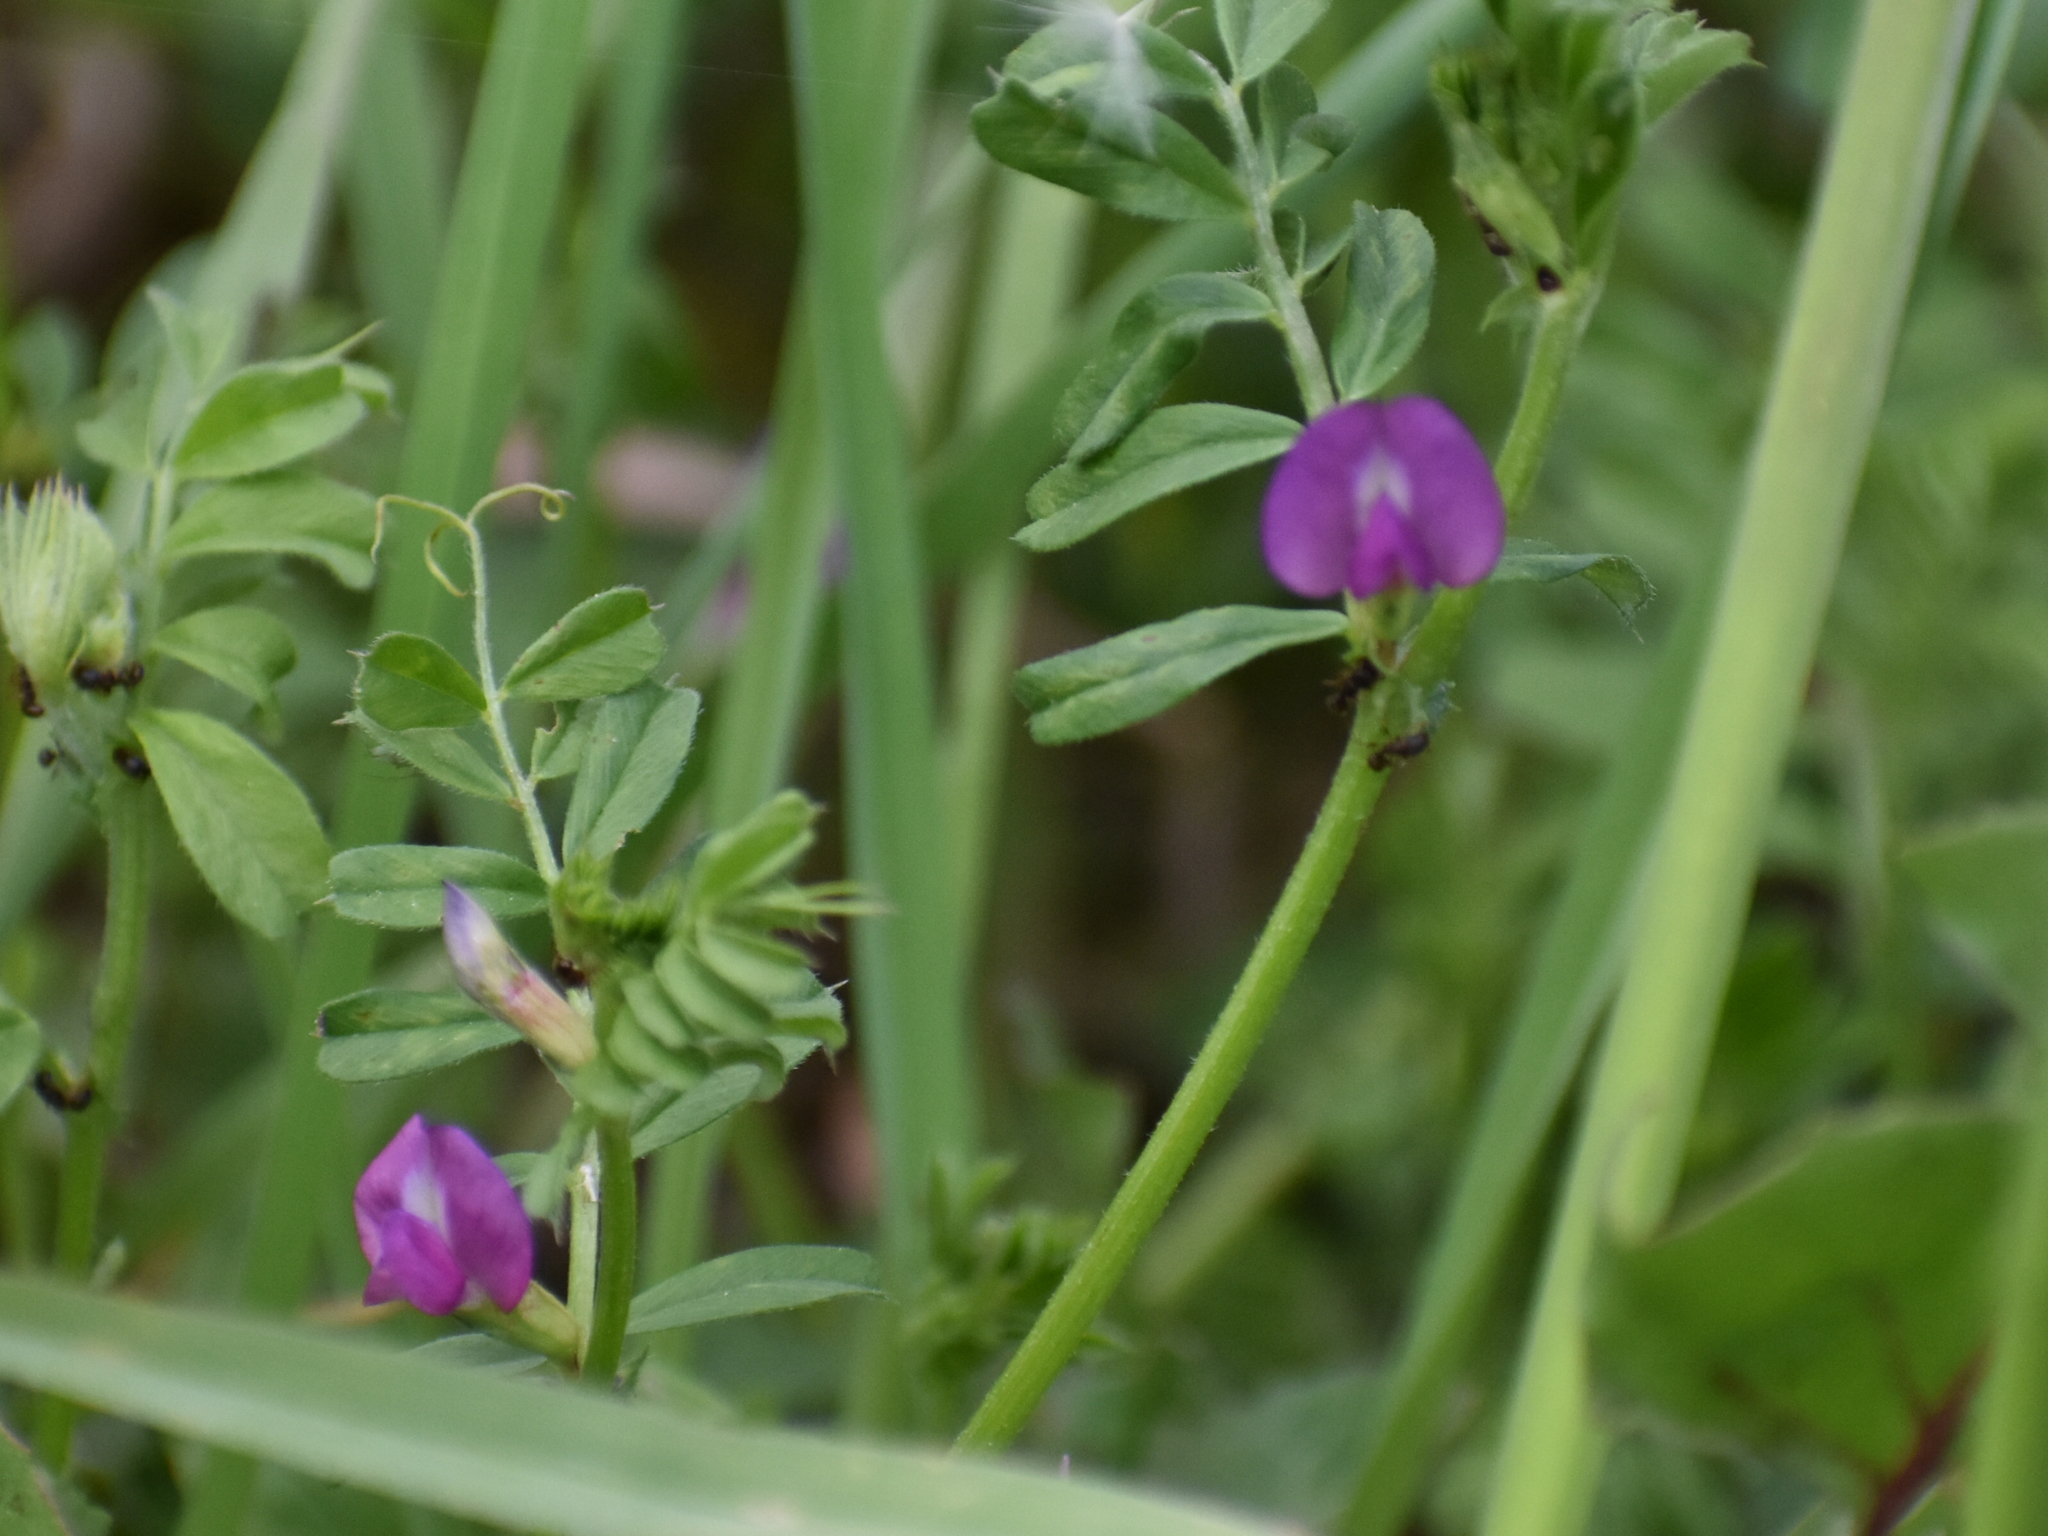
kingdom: Plantae
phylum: Tracheophyta
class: Magnoliopsida
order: Fabales
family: Fabaceae
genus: Vicia
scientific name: Vicia sativa
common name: Garden vetch
